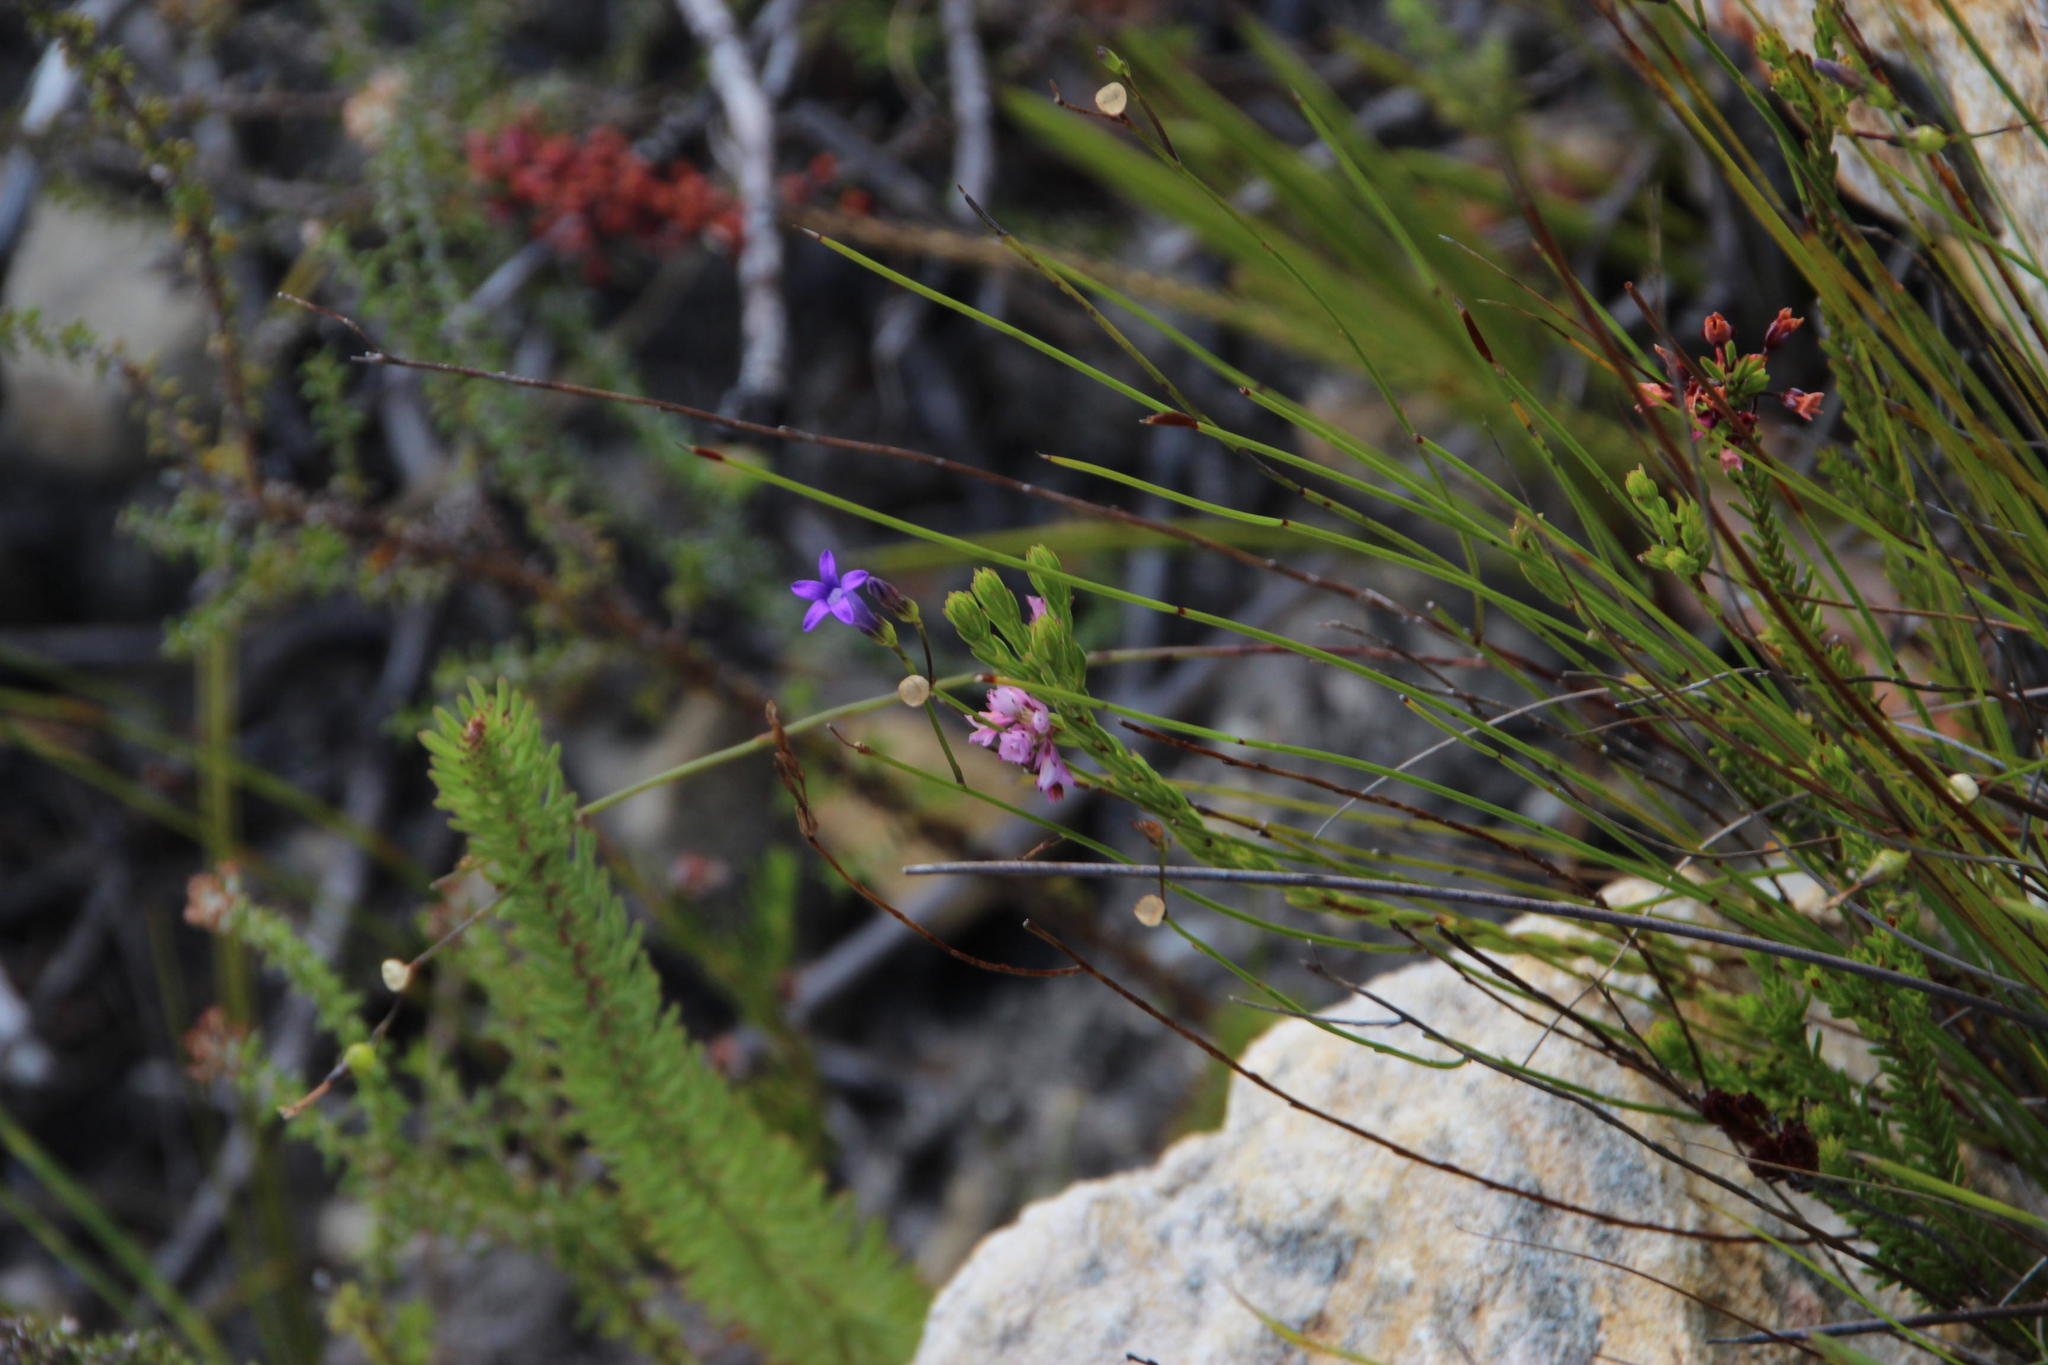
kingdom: Plantae
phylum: Tracheophyta
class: Magnoliopsida
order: Asterales
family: Campanulaceae
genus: Siphocodon
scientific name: Siphocodon spartioides
